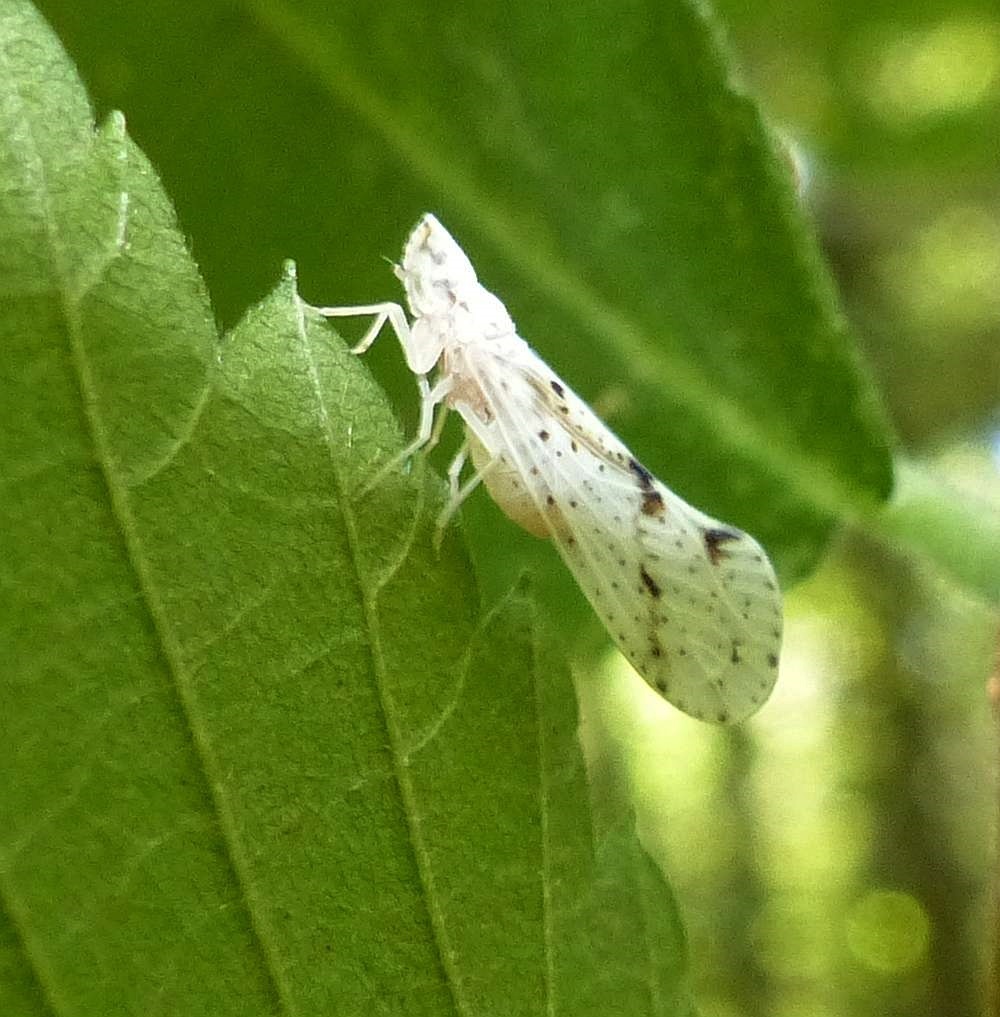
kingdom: Animalia
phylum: Arthropoda
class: Insecta
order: Hemiptera
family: Derbidae
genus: Otiocerus
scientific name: Otiocerus francilloni
